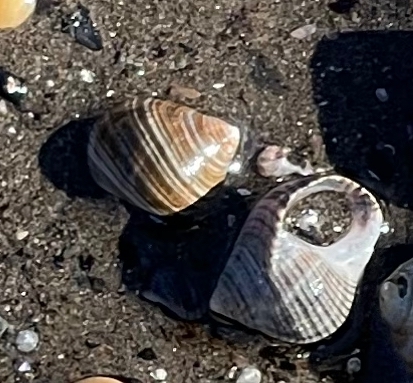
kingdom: Animalia
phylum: Mollusca
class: Gastropoda
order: Littorinimorpha
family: Littorinidae
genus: Littorina
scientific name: Littorina littorea
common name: Common periwinkle
